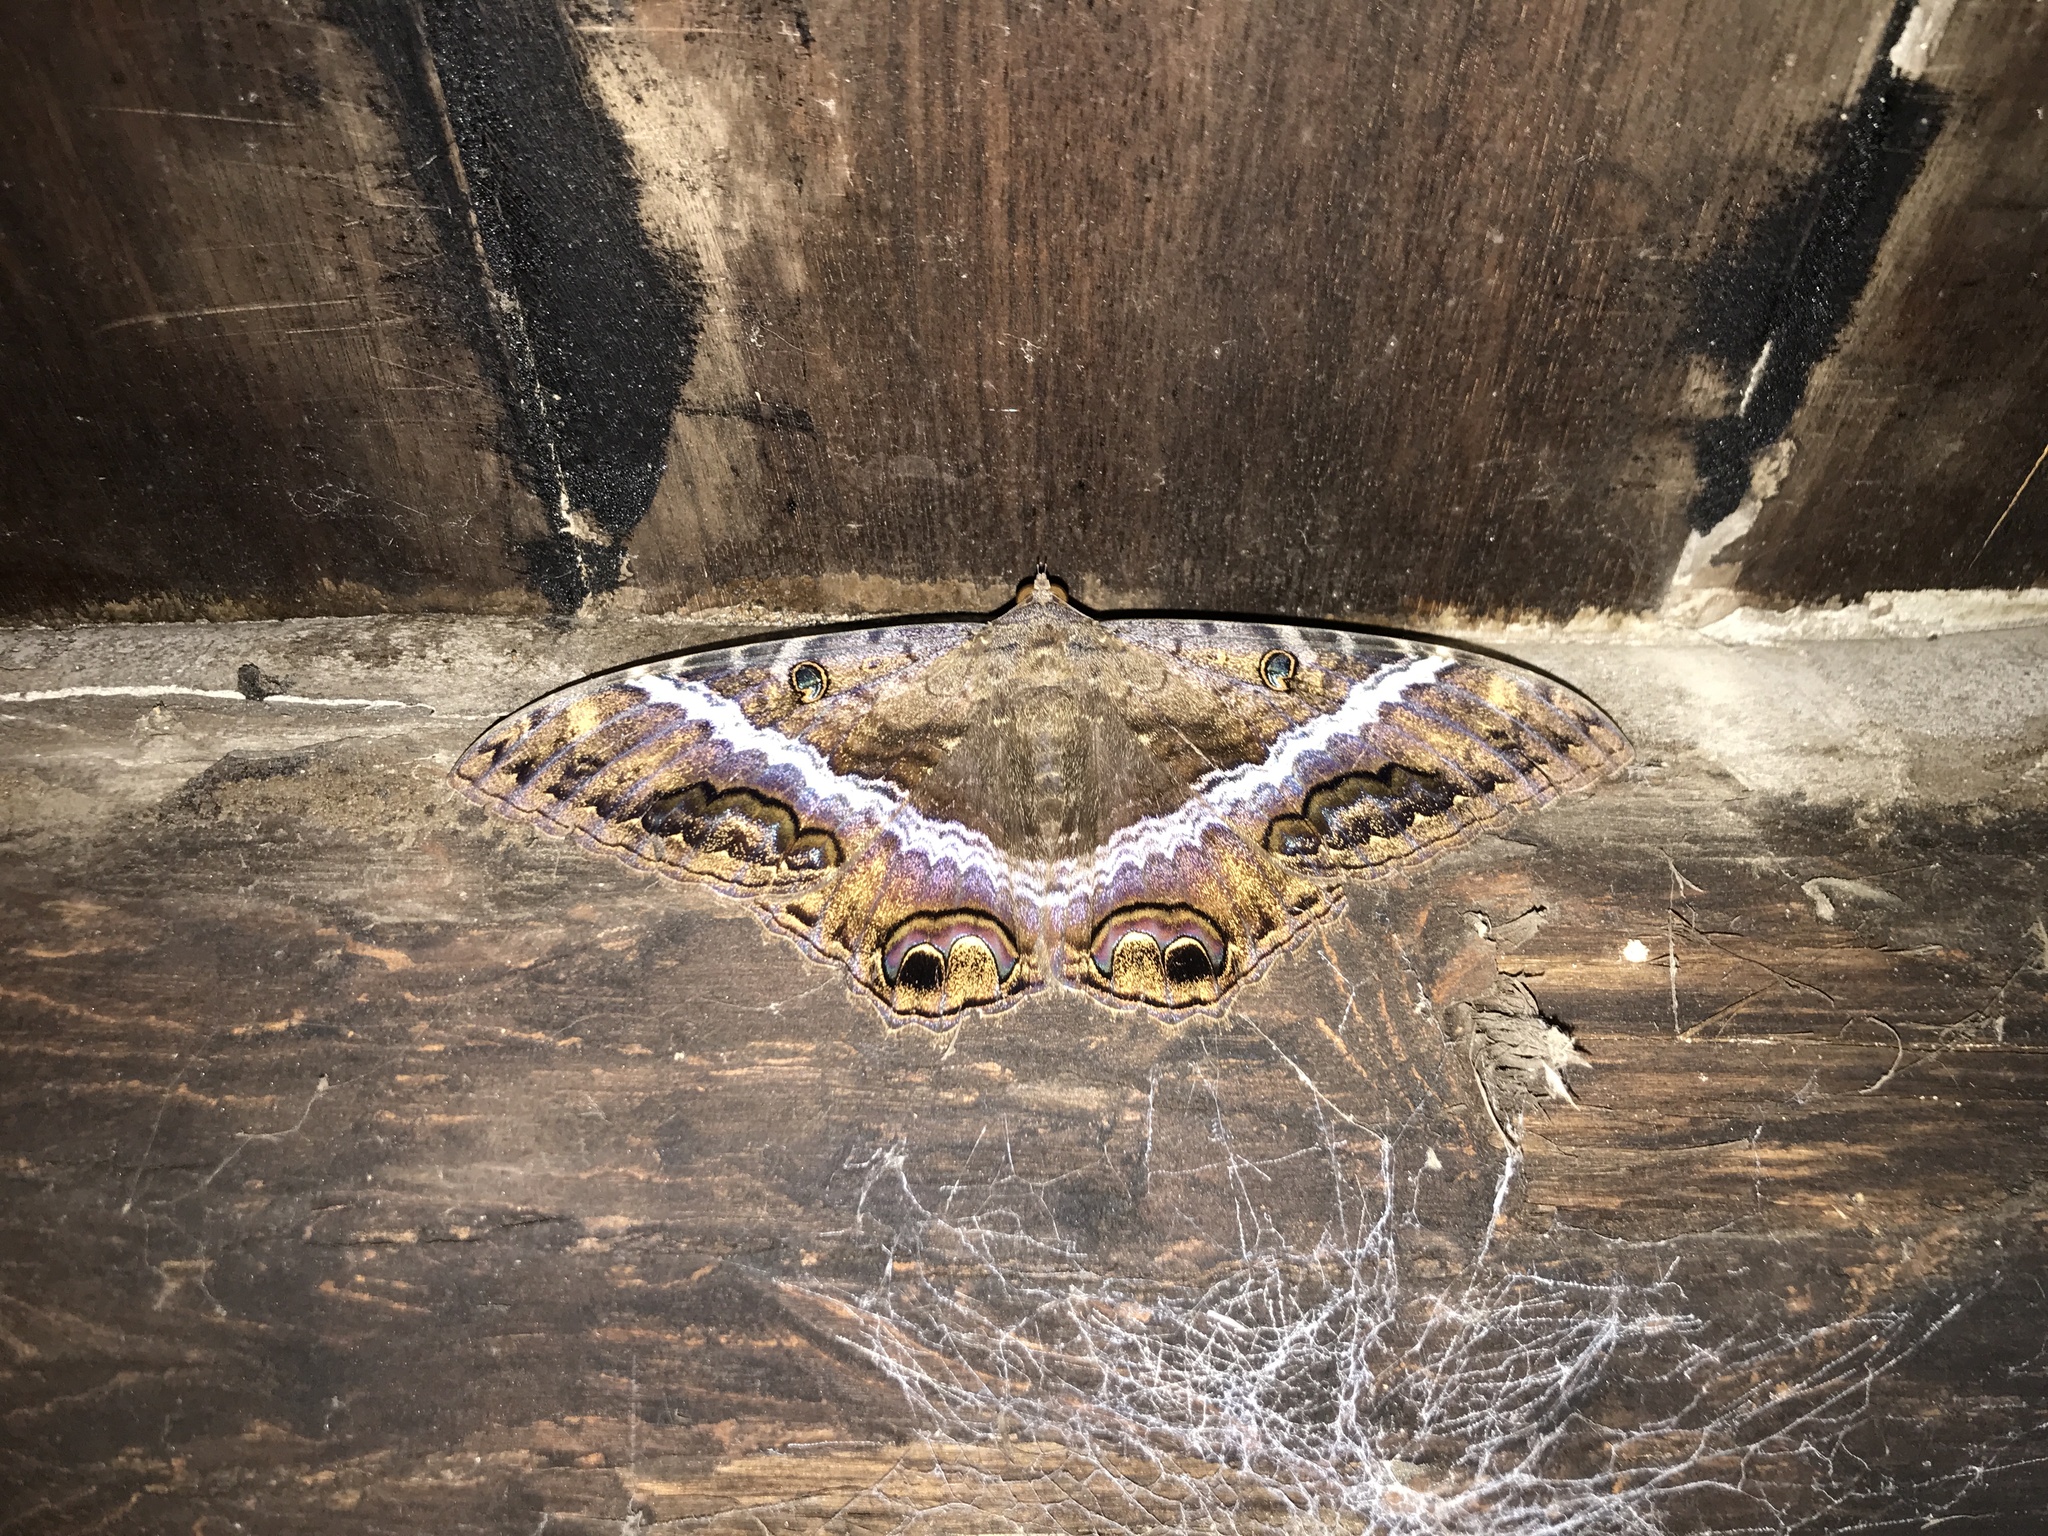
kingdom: Animalia
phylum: Arthropoda
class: Insecta
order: Lepidoptera
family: Erebidae
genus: Ascalapha
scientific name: Ascalapha odorata
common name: Black witch
